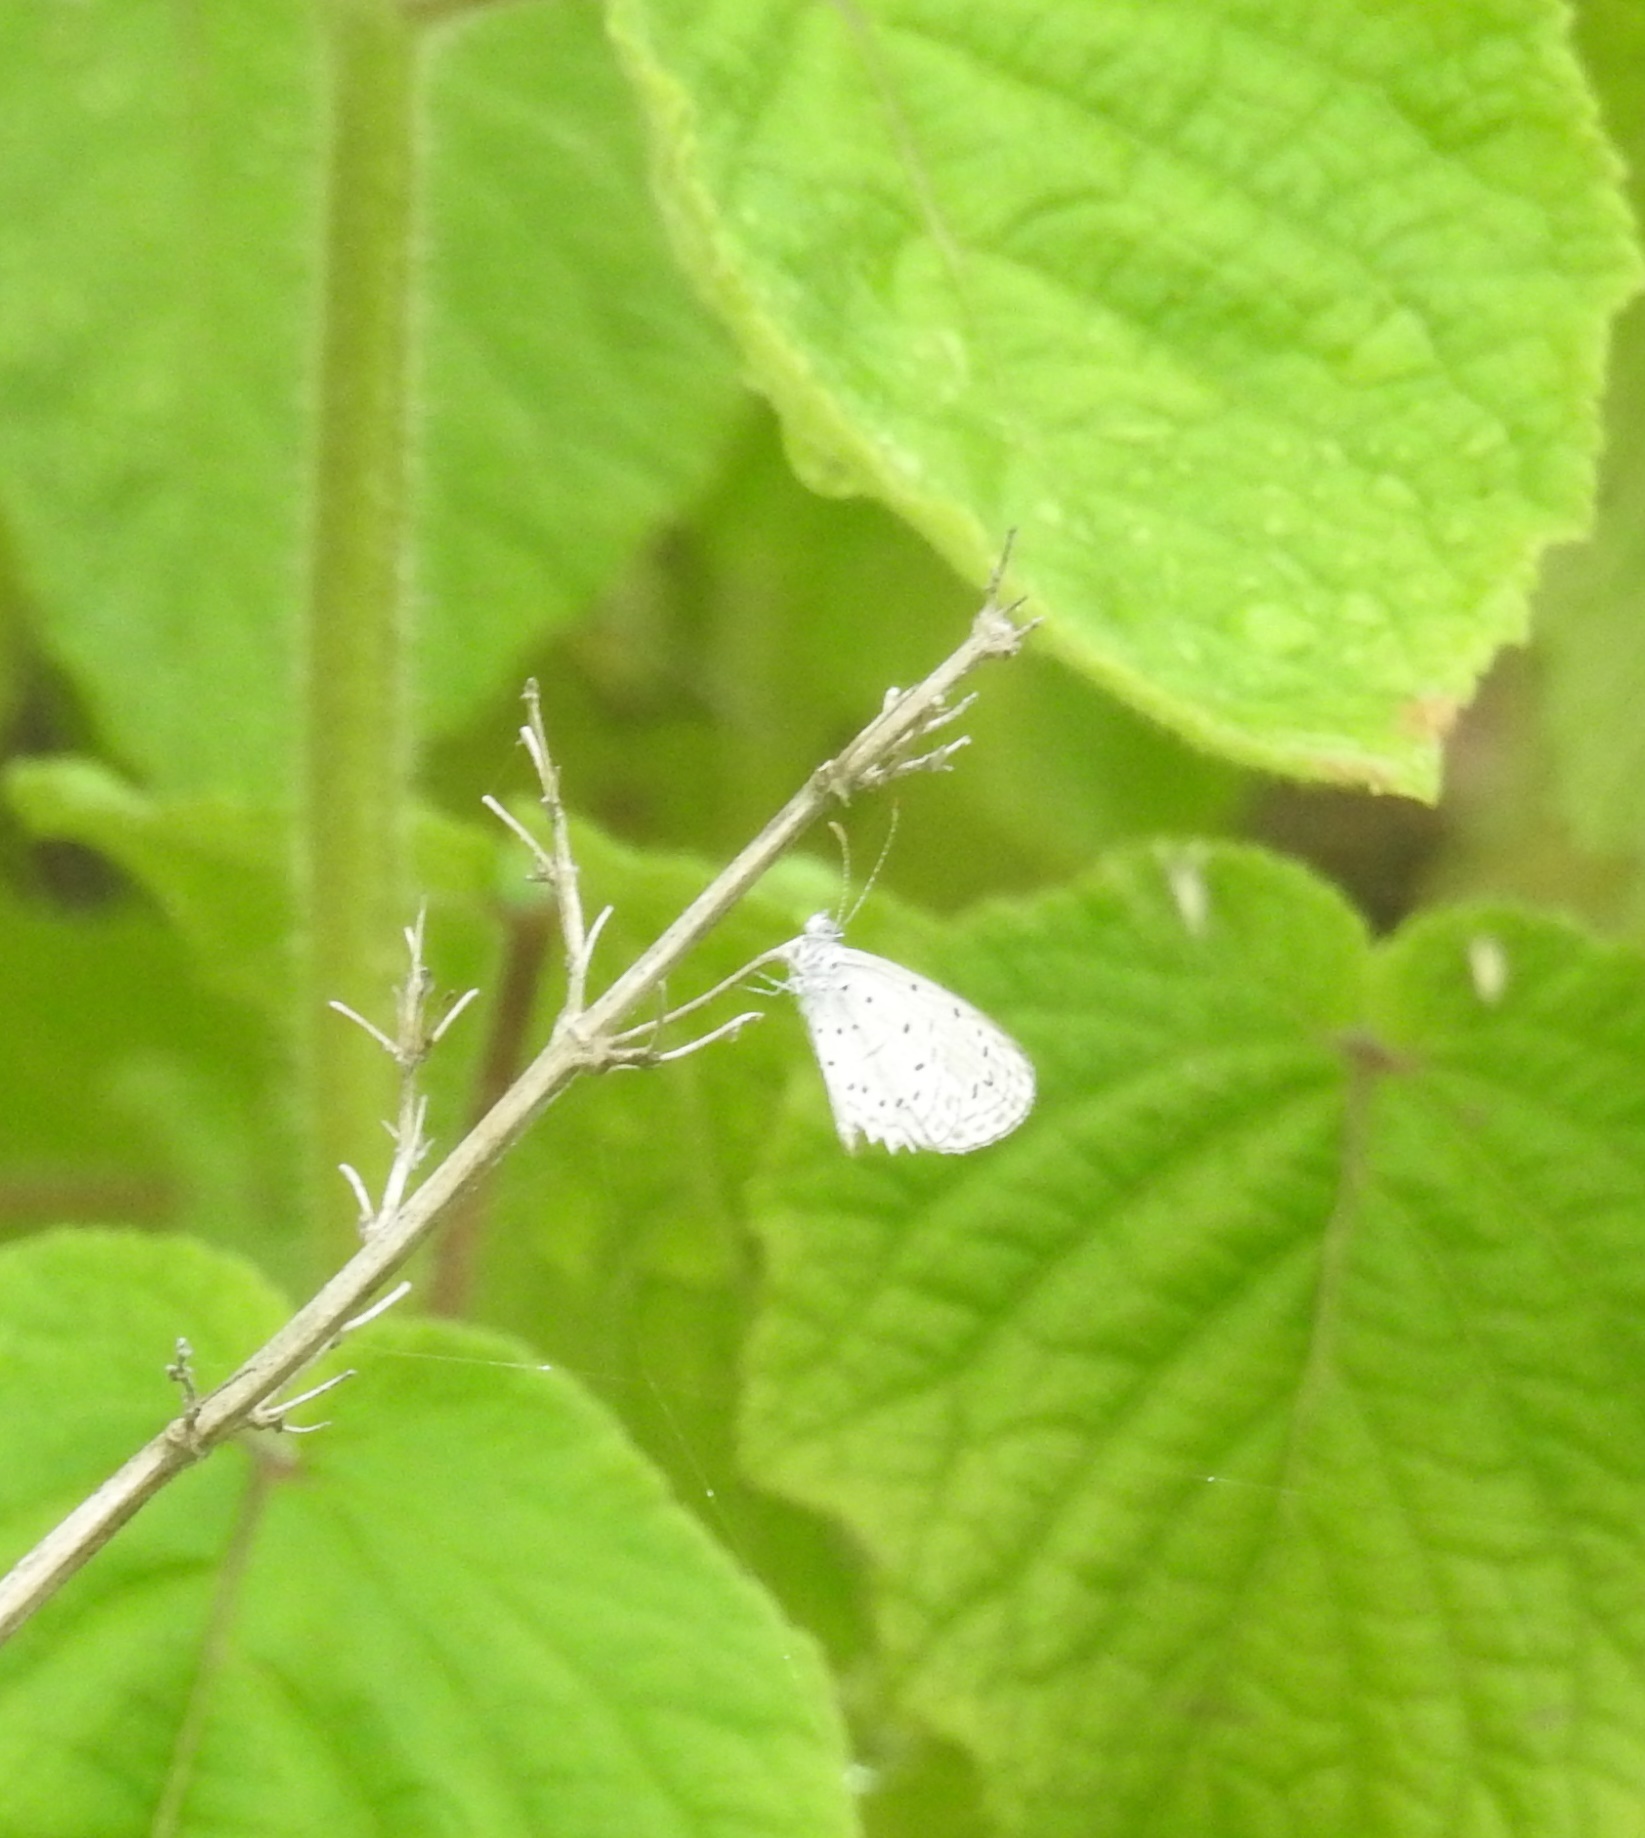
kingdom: Animalia
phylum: Arthropoda
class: Insecta
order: Lepidoptera
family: Lycaenidae
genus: Zizula
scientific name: Zizula hylax
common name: Gaika blue
